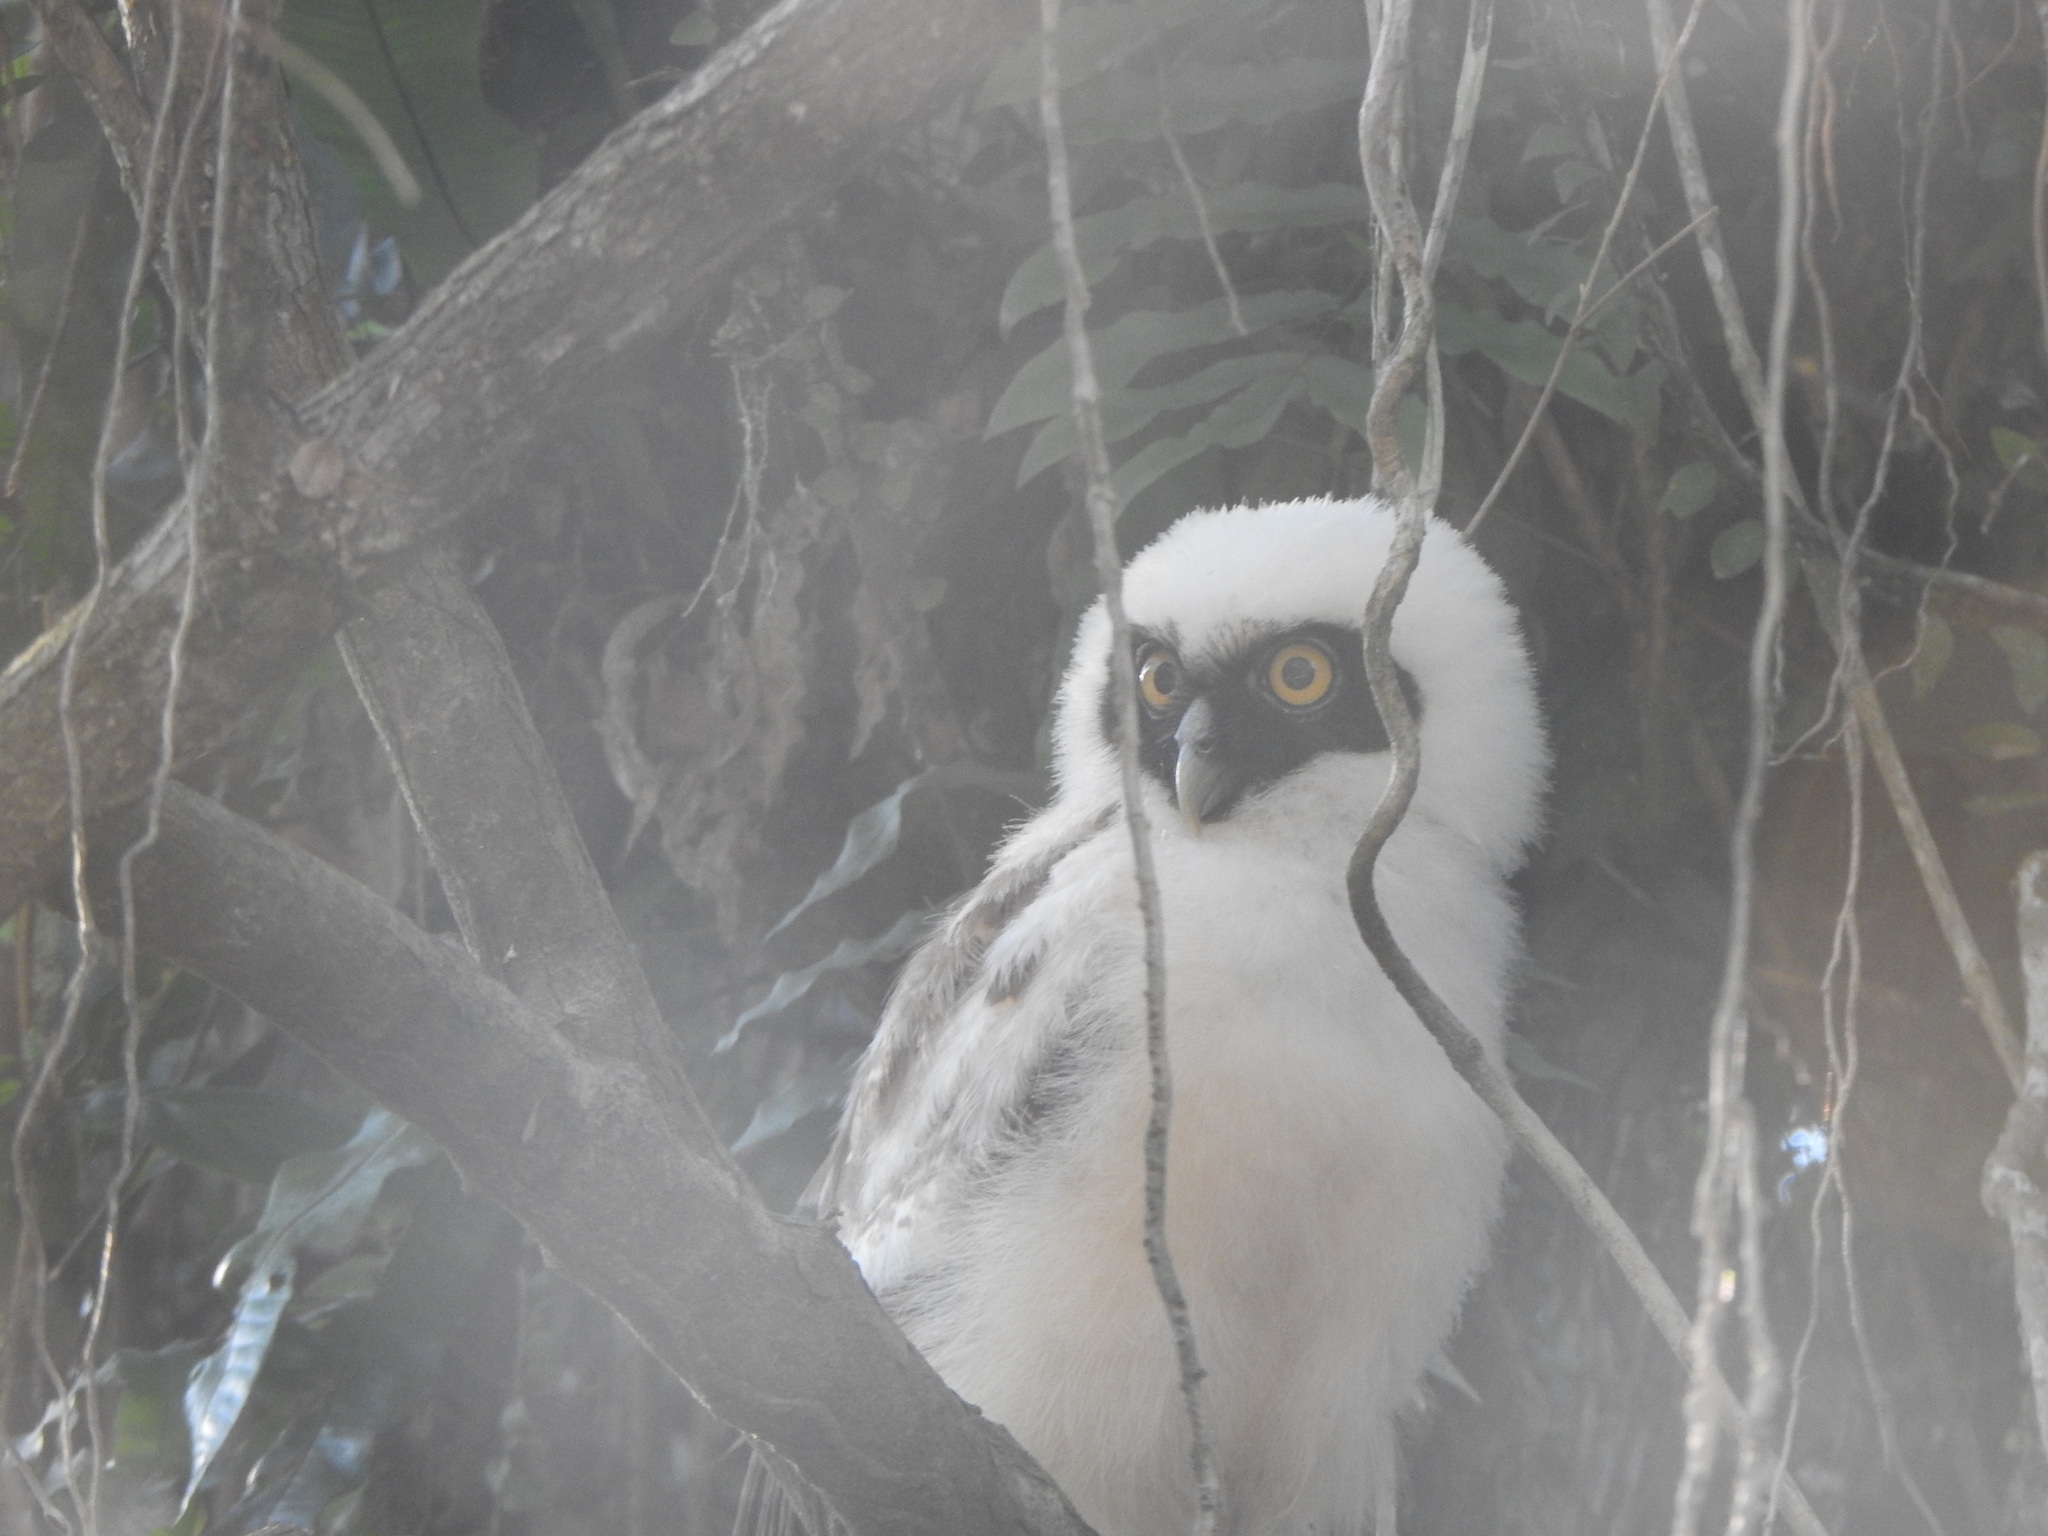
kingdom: Animalia
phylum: Chordata
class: Aves
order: Strigiformes
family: Strigidae
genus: Pulsatrix
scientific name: Pulsatrix perspicillata
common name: Spectacled owl
